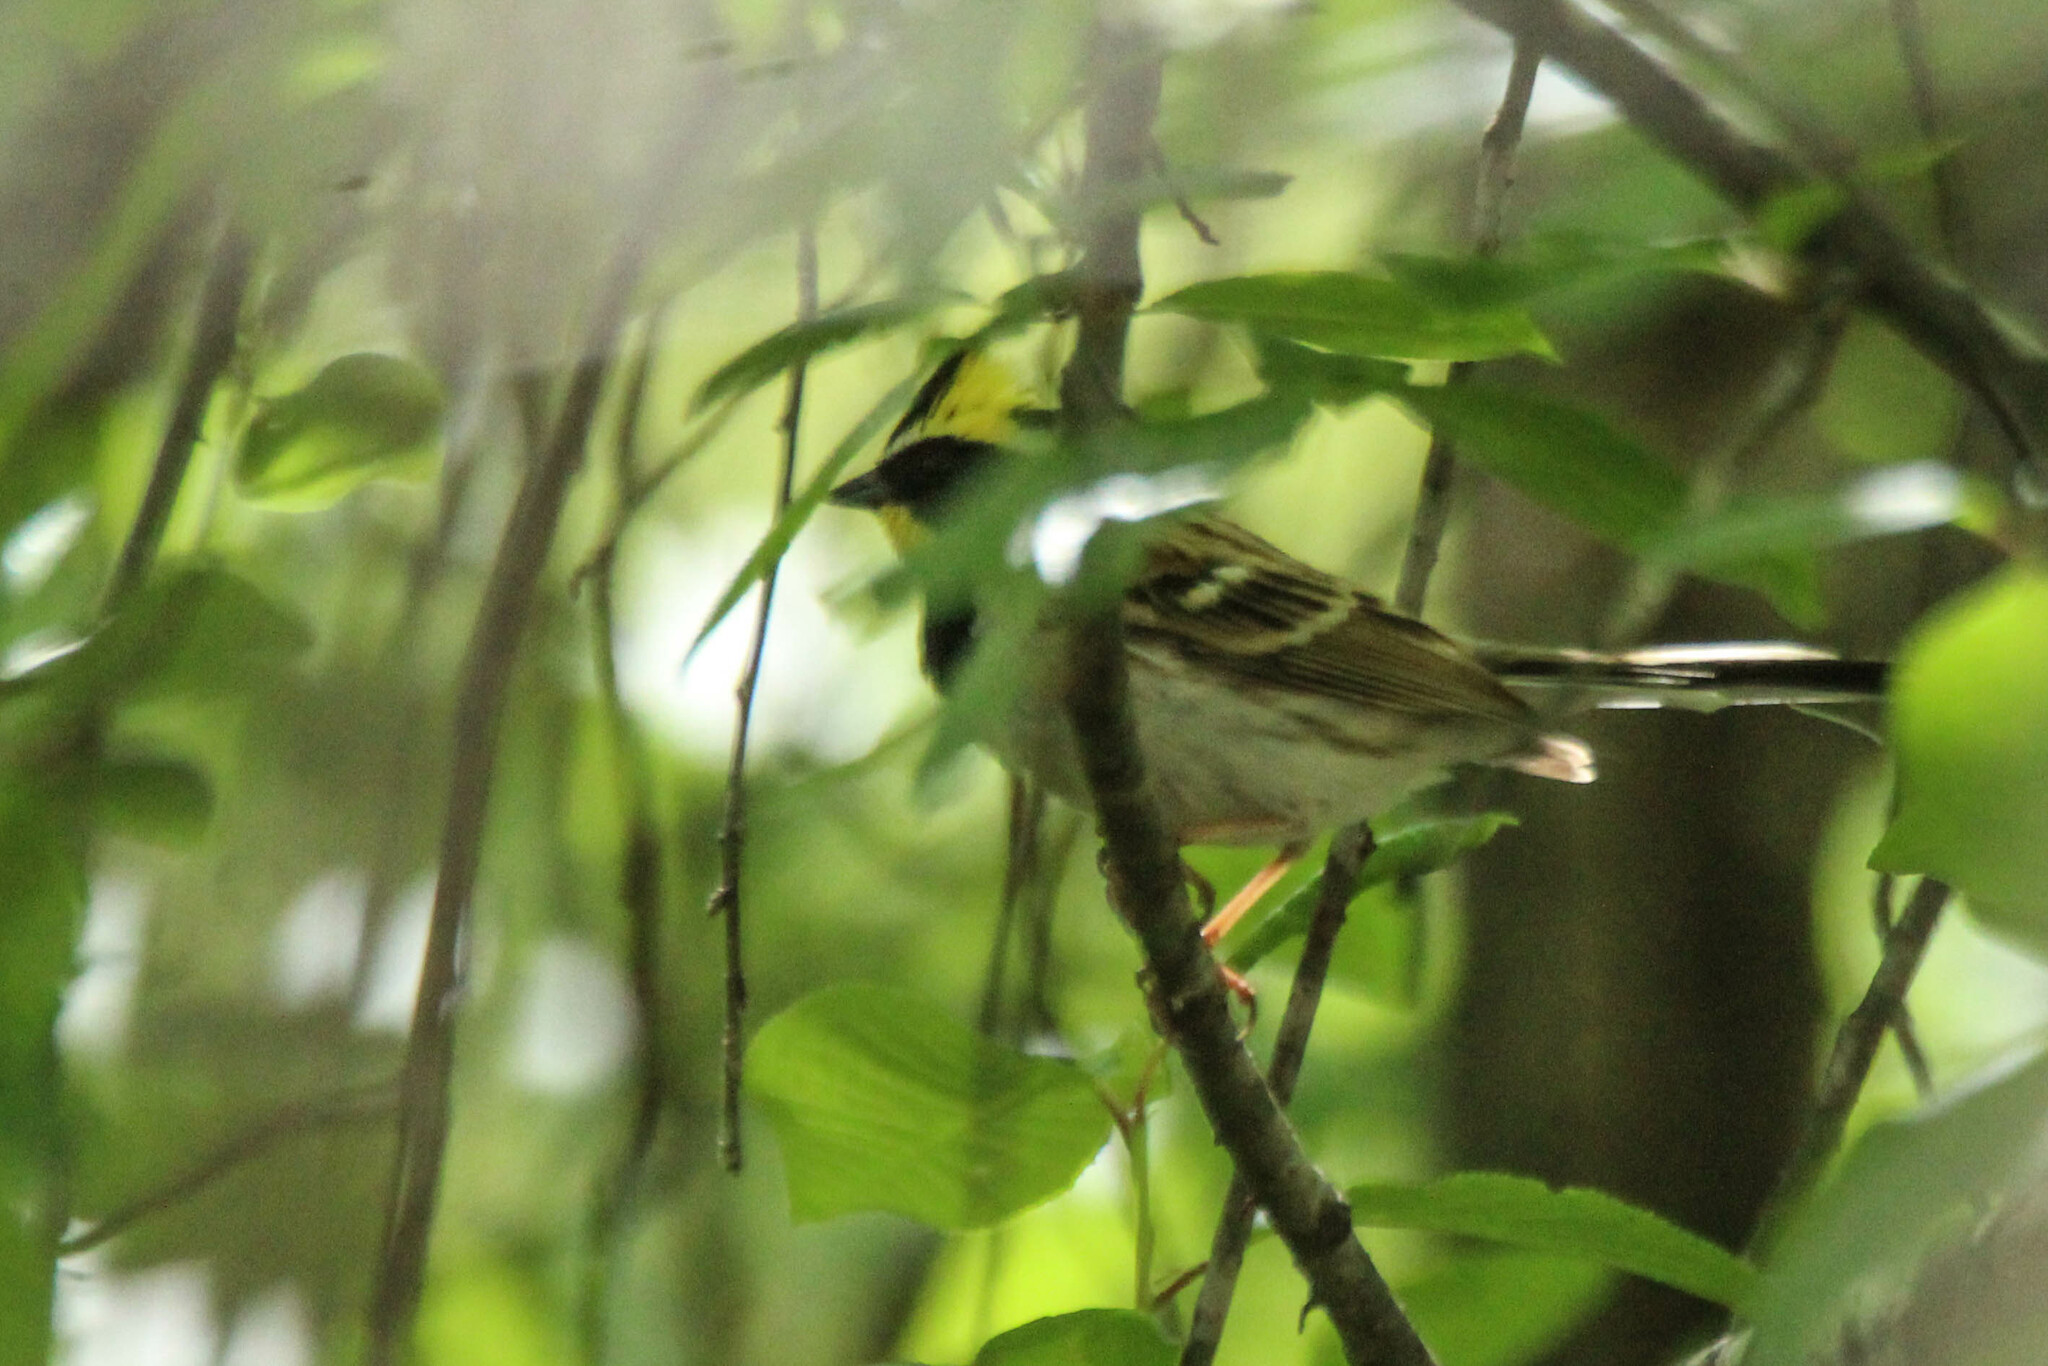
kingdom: Animalia
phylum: Chordata
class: Aves
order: Passeriformes
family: Emberizidae
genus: Emberiza
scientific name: Emberiza elegans
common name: Yellow-throated bunting
